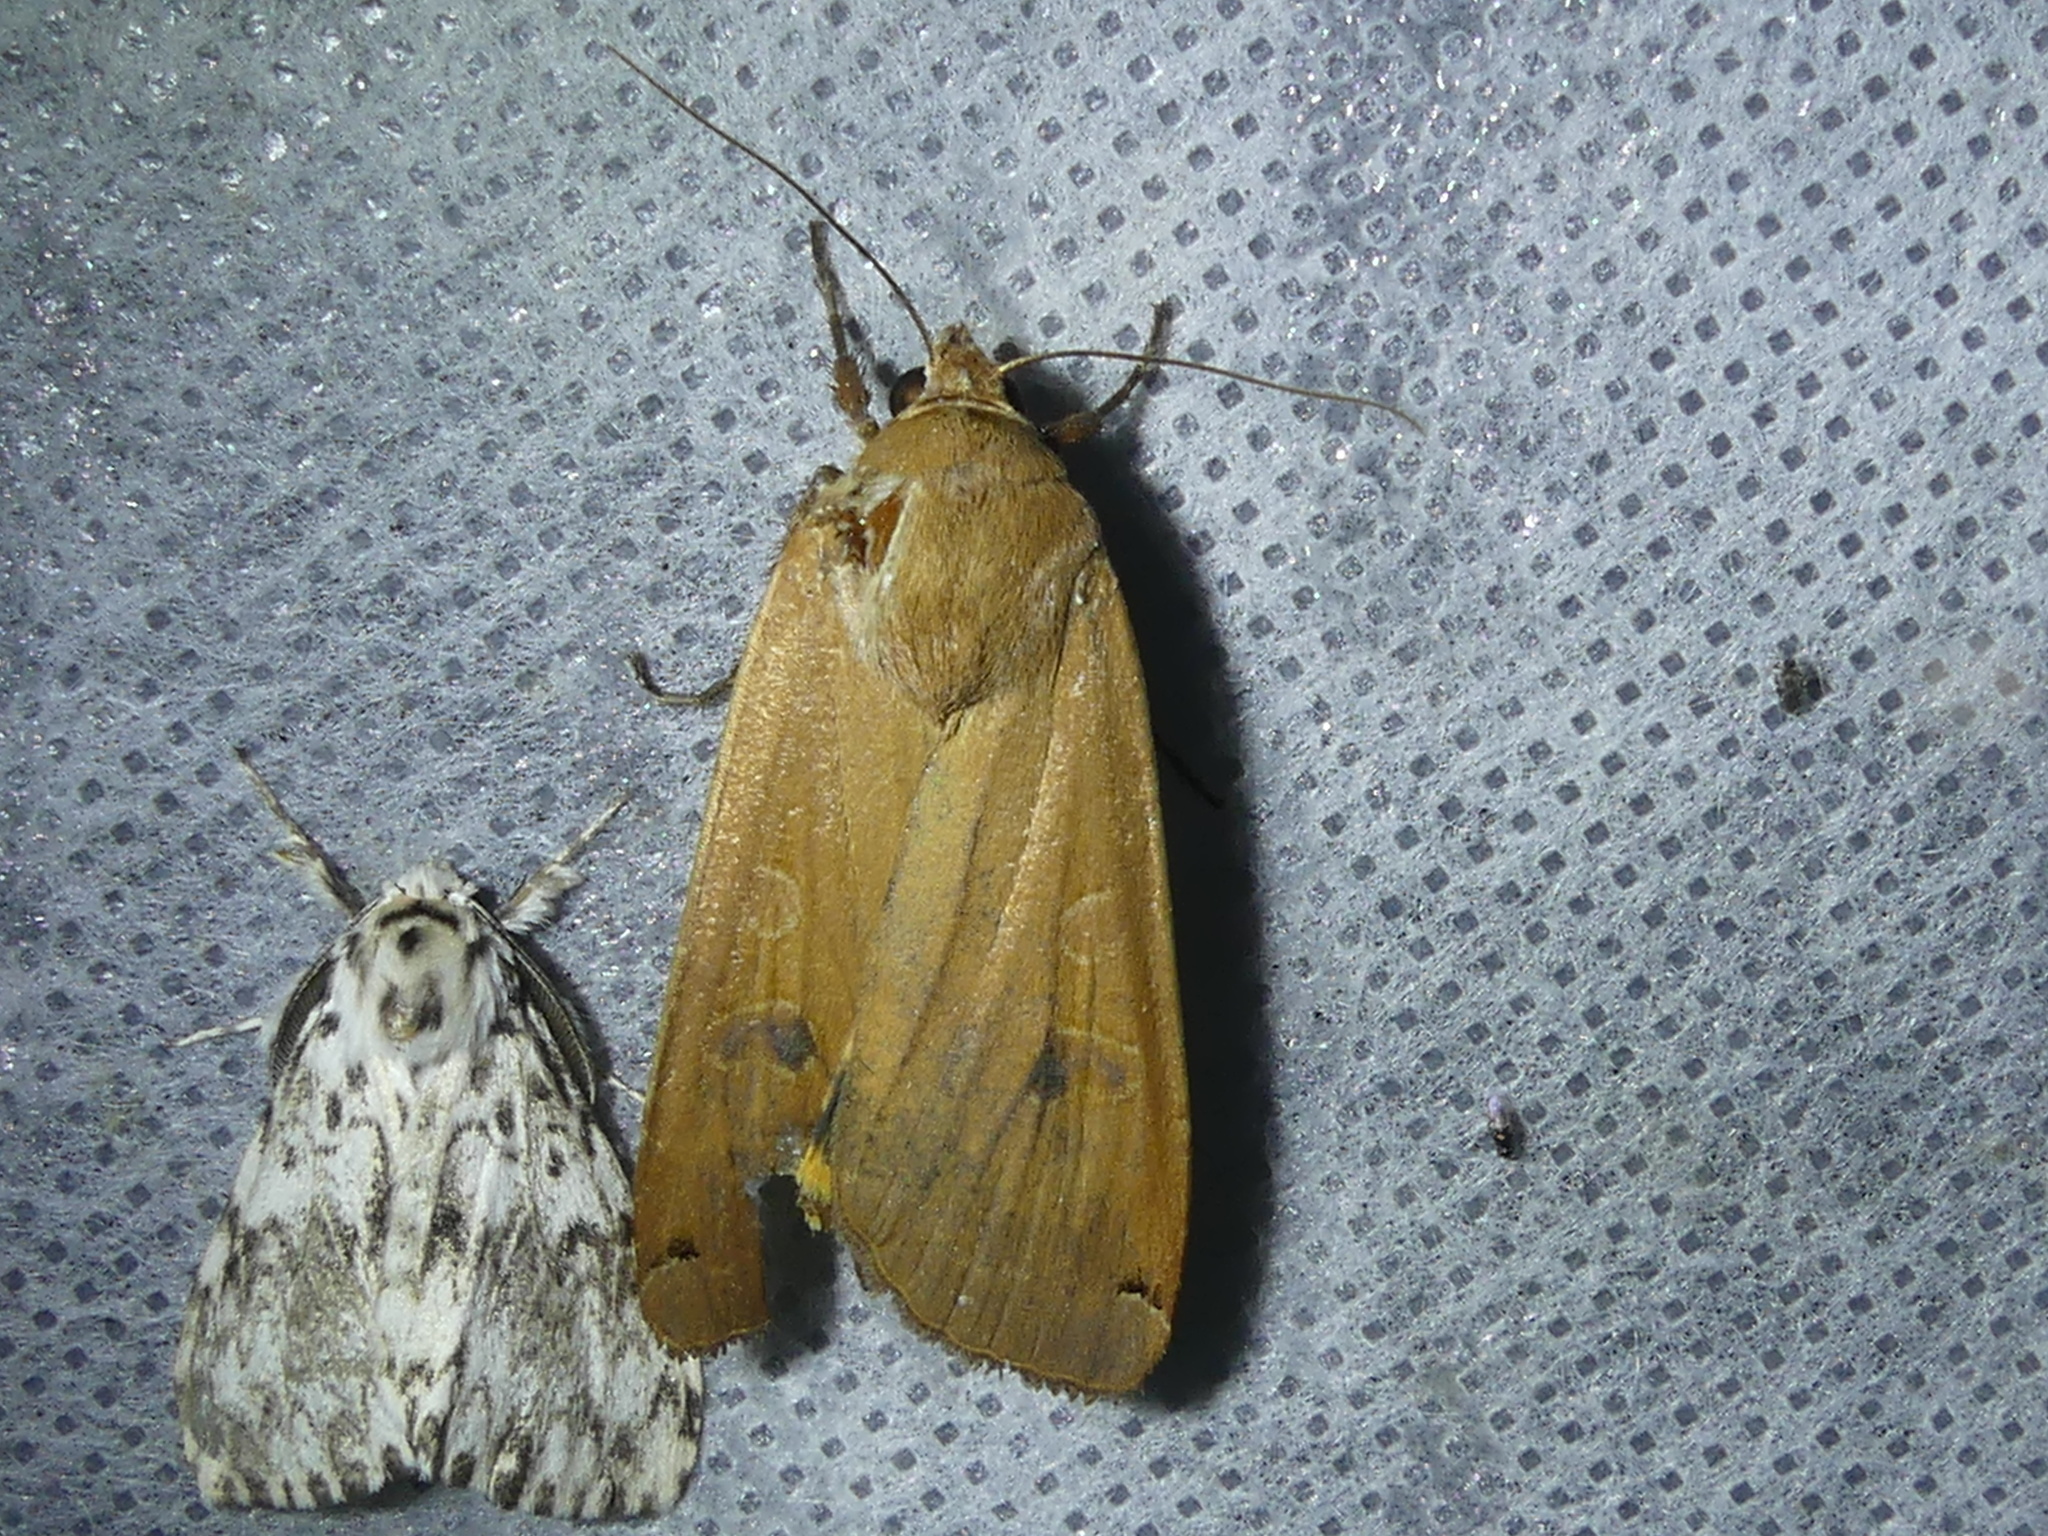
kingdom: Animalia
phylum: Arthropoda
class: Insecta
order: Lepidoptera
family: Noctuidae
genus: Noctua
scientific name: Noctua pronuba
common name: Large yellow underwing
